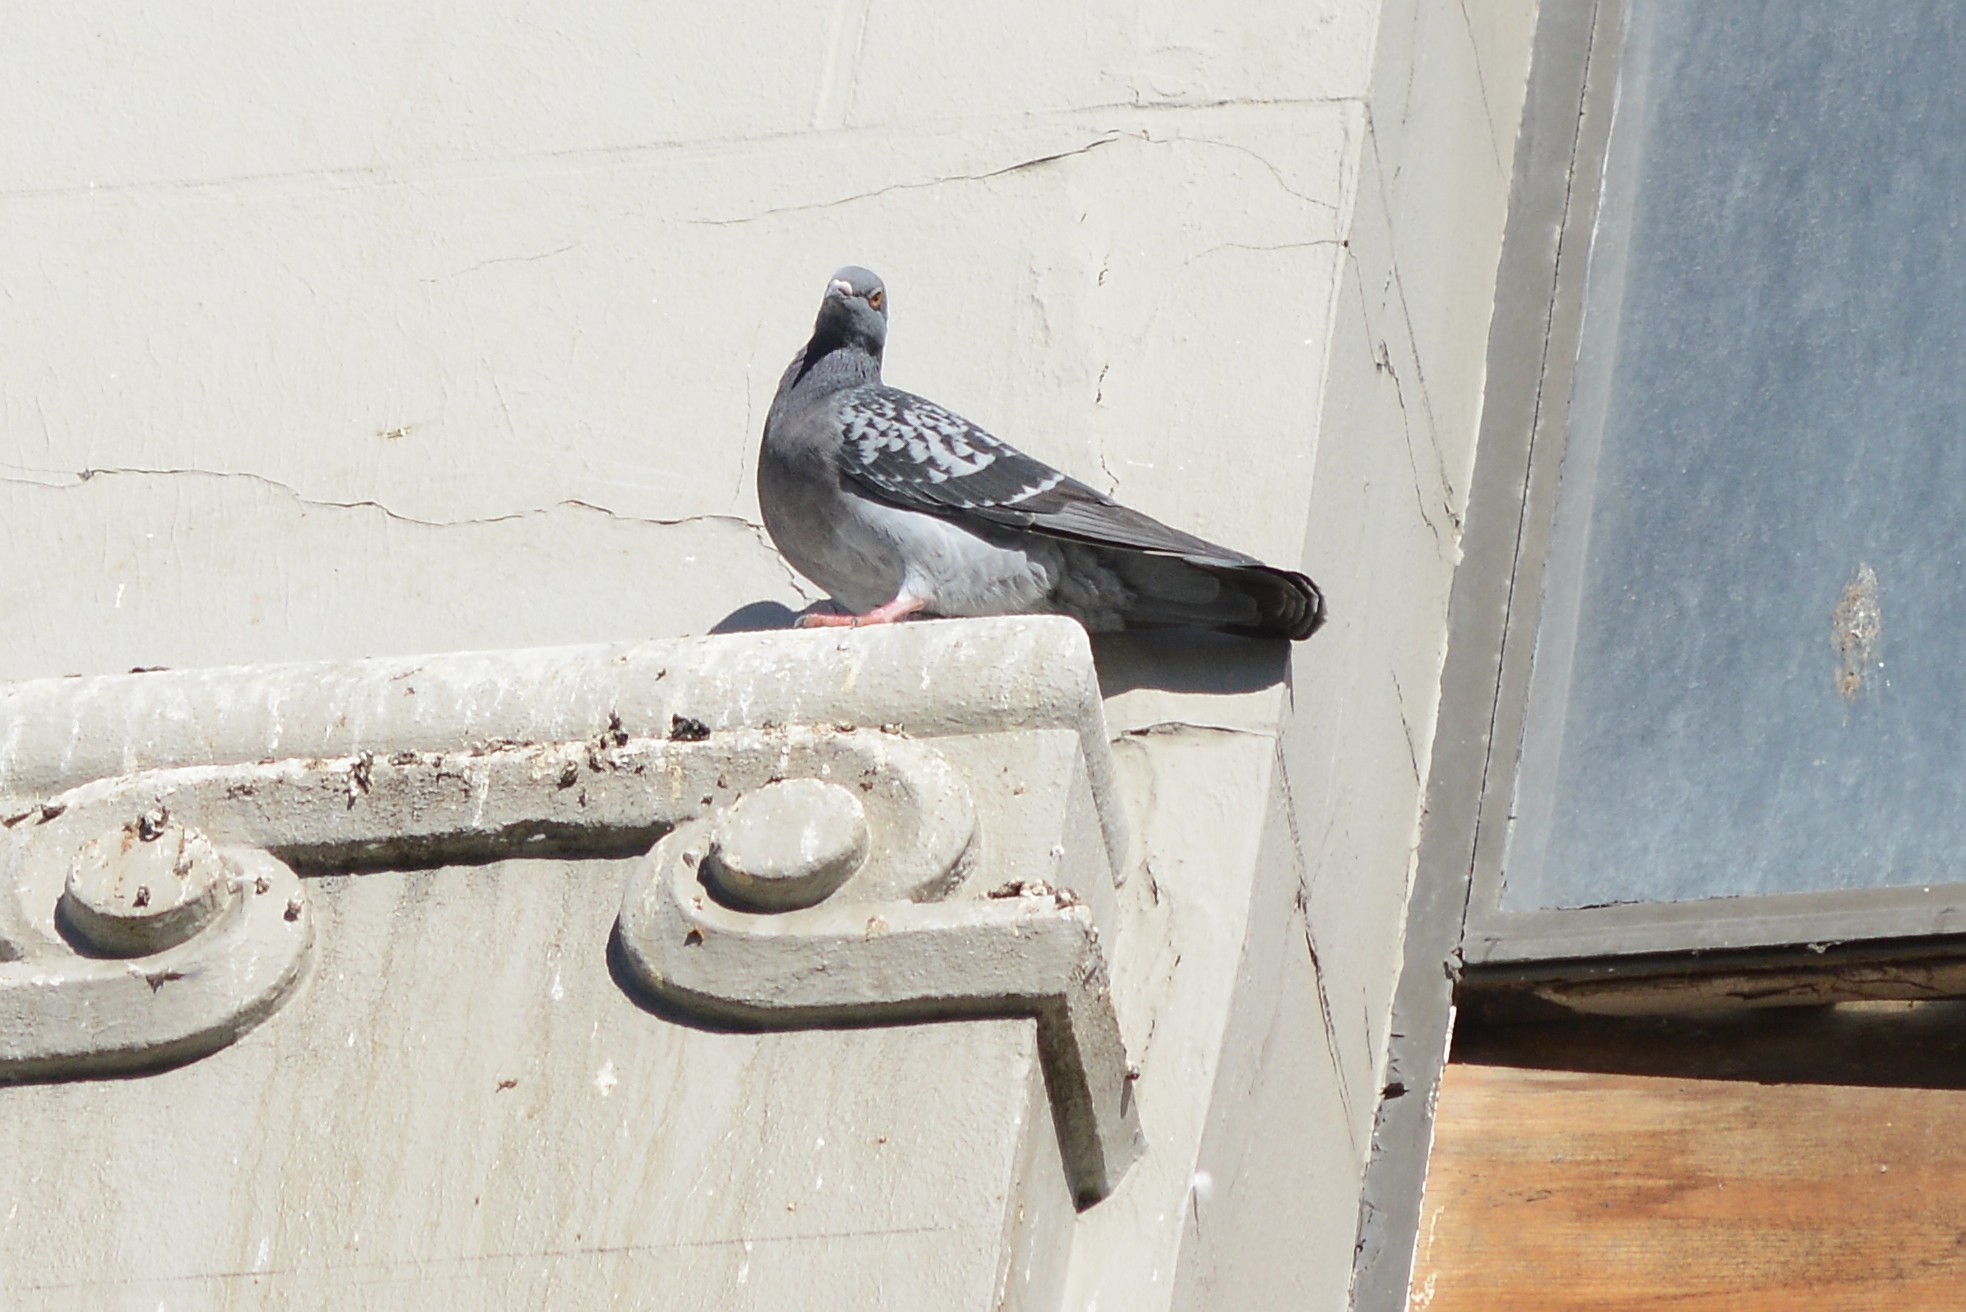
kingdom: Animalia
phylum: Chordata
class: Aves
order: Columbiformes
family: Columbidae
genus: Columba
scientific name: Columba livia
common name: Rock pigeon
